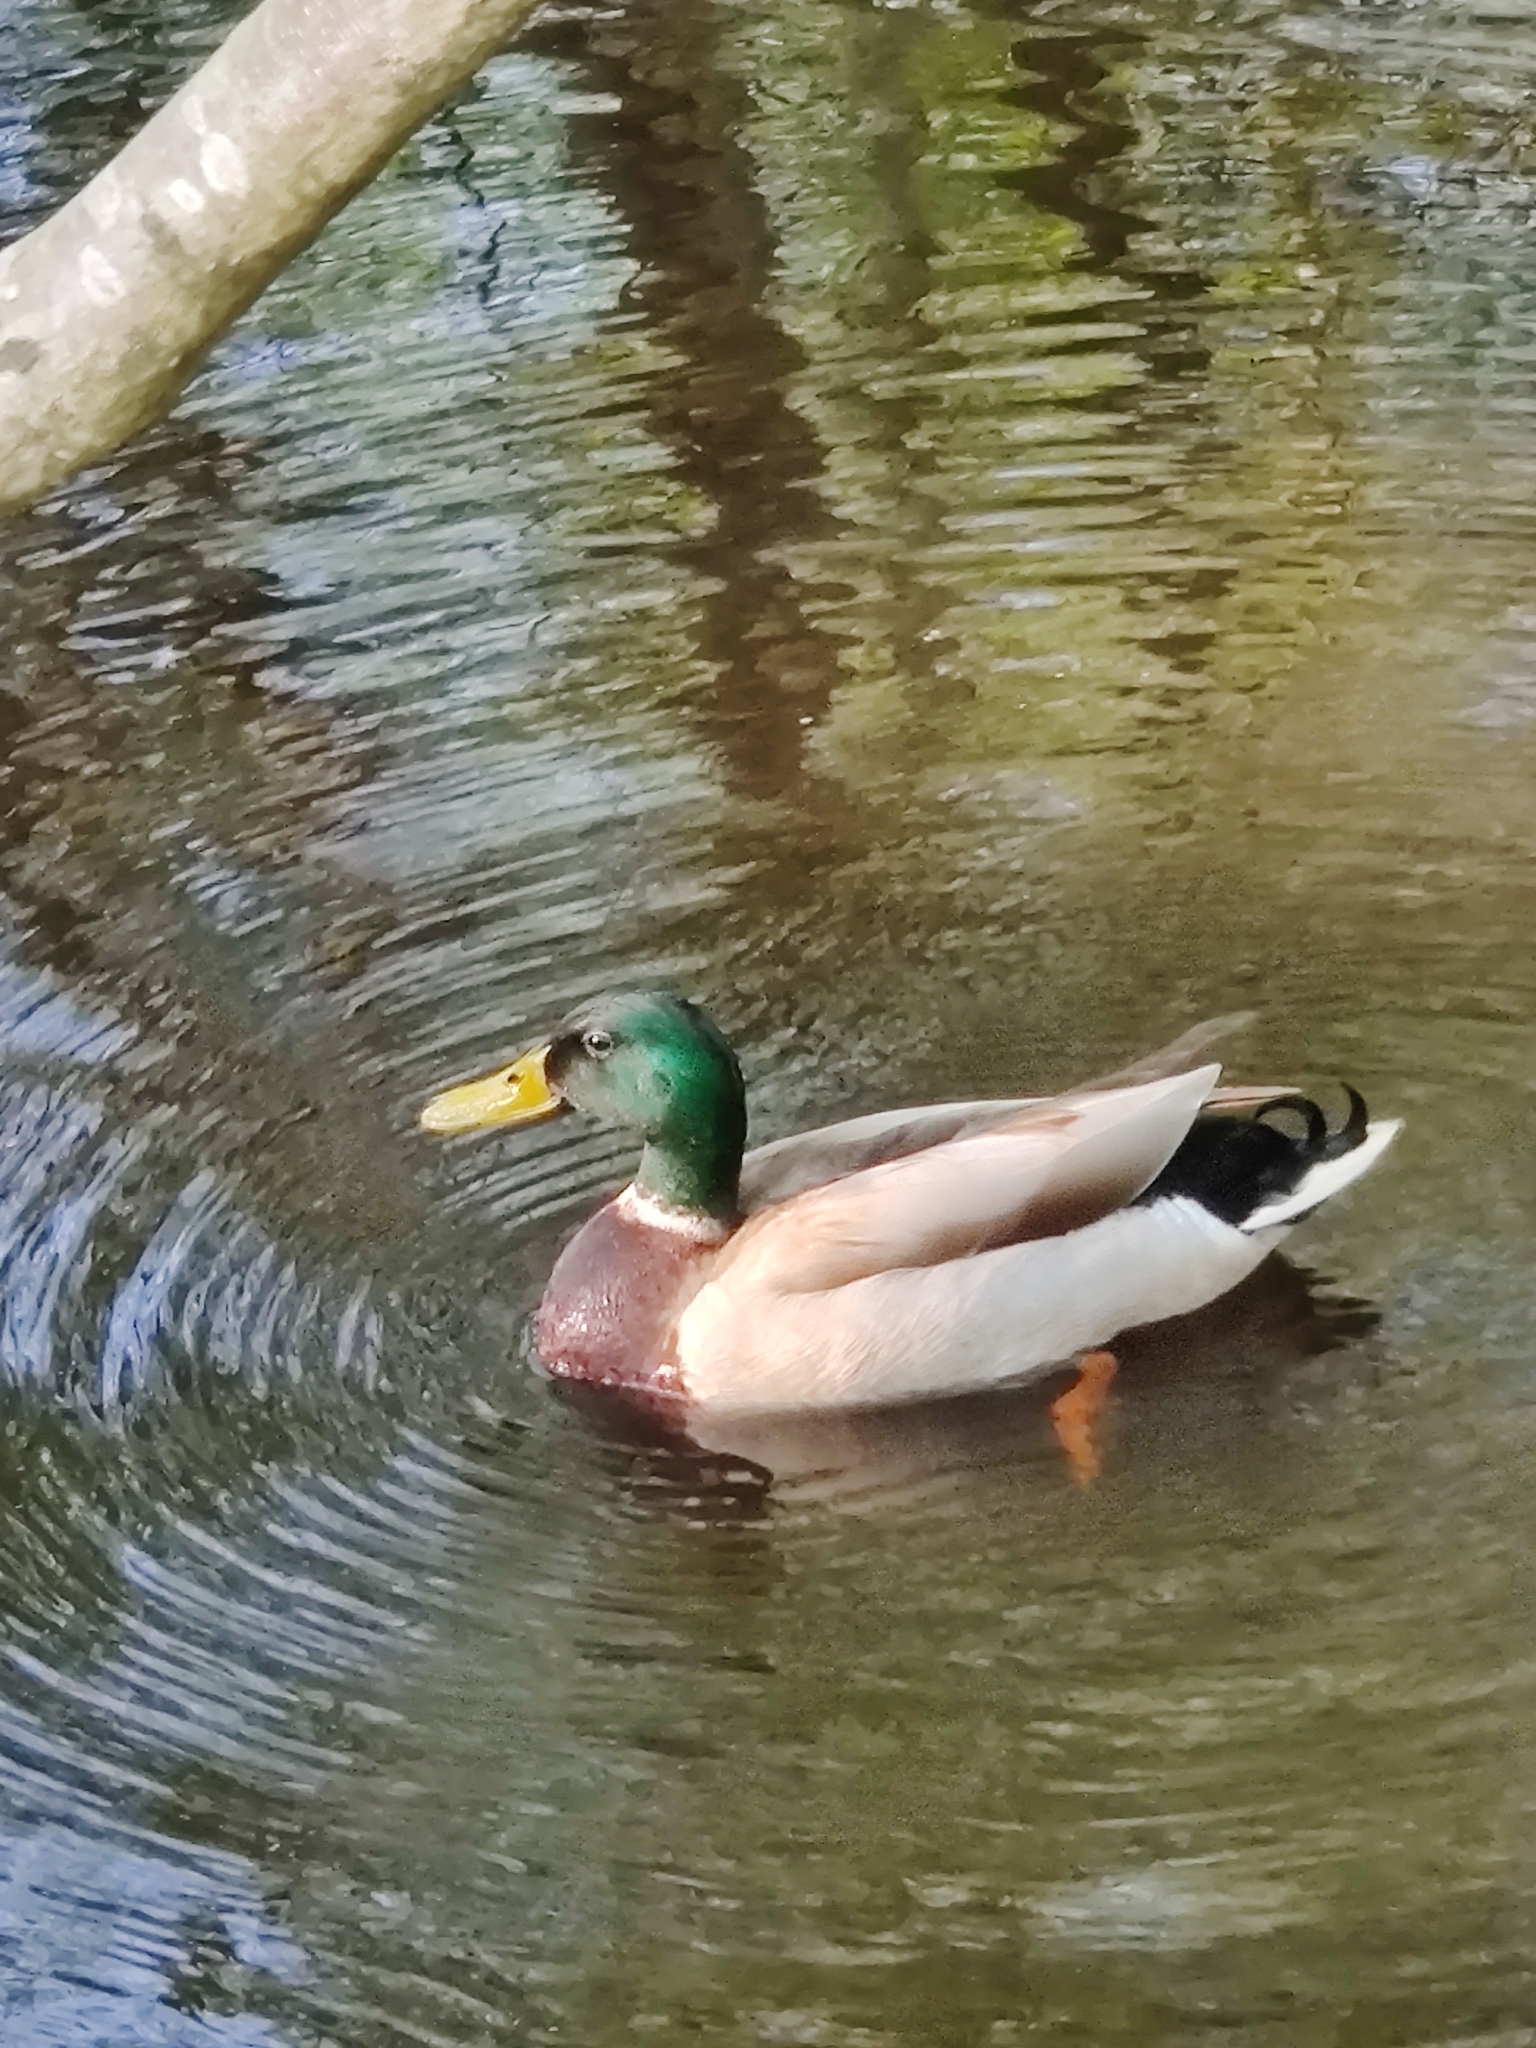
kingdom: Animalia
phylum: Chordata
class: Aves
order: Anseriformes
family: Anatidae
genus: Anas
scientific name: Anas platyrhynchos
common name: Mallard
